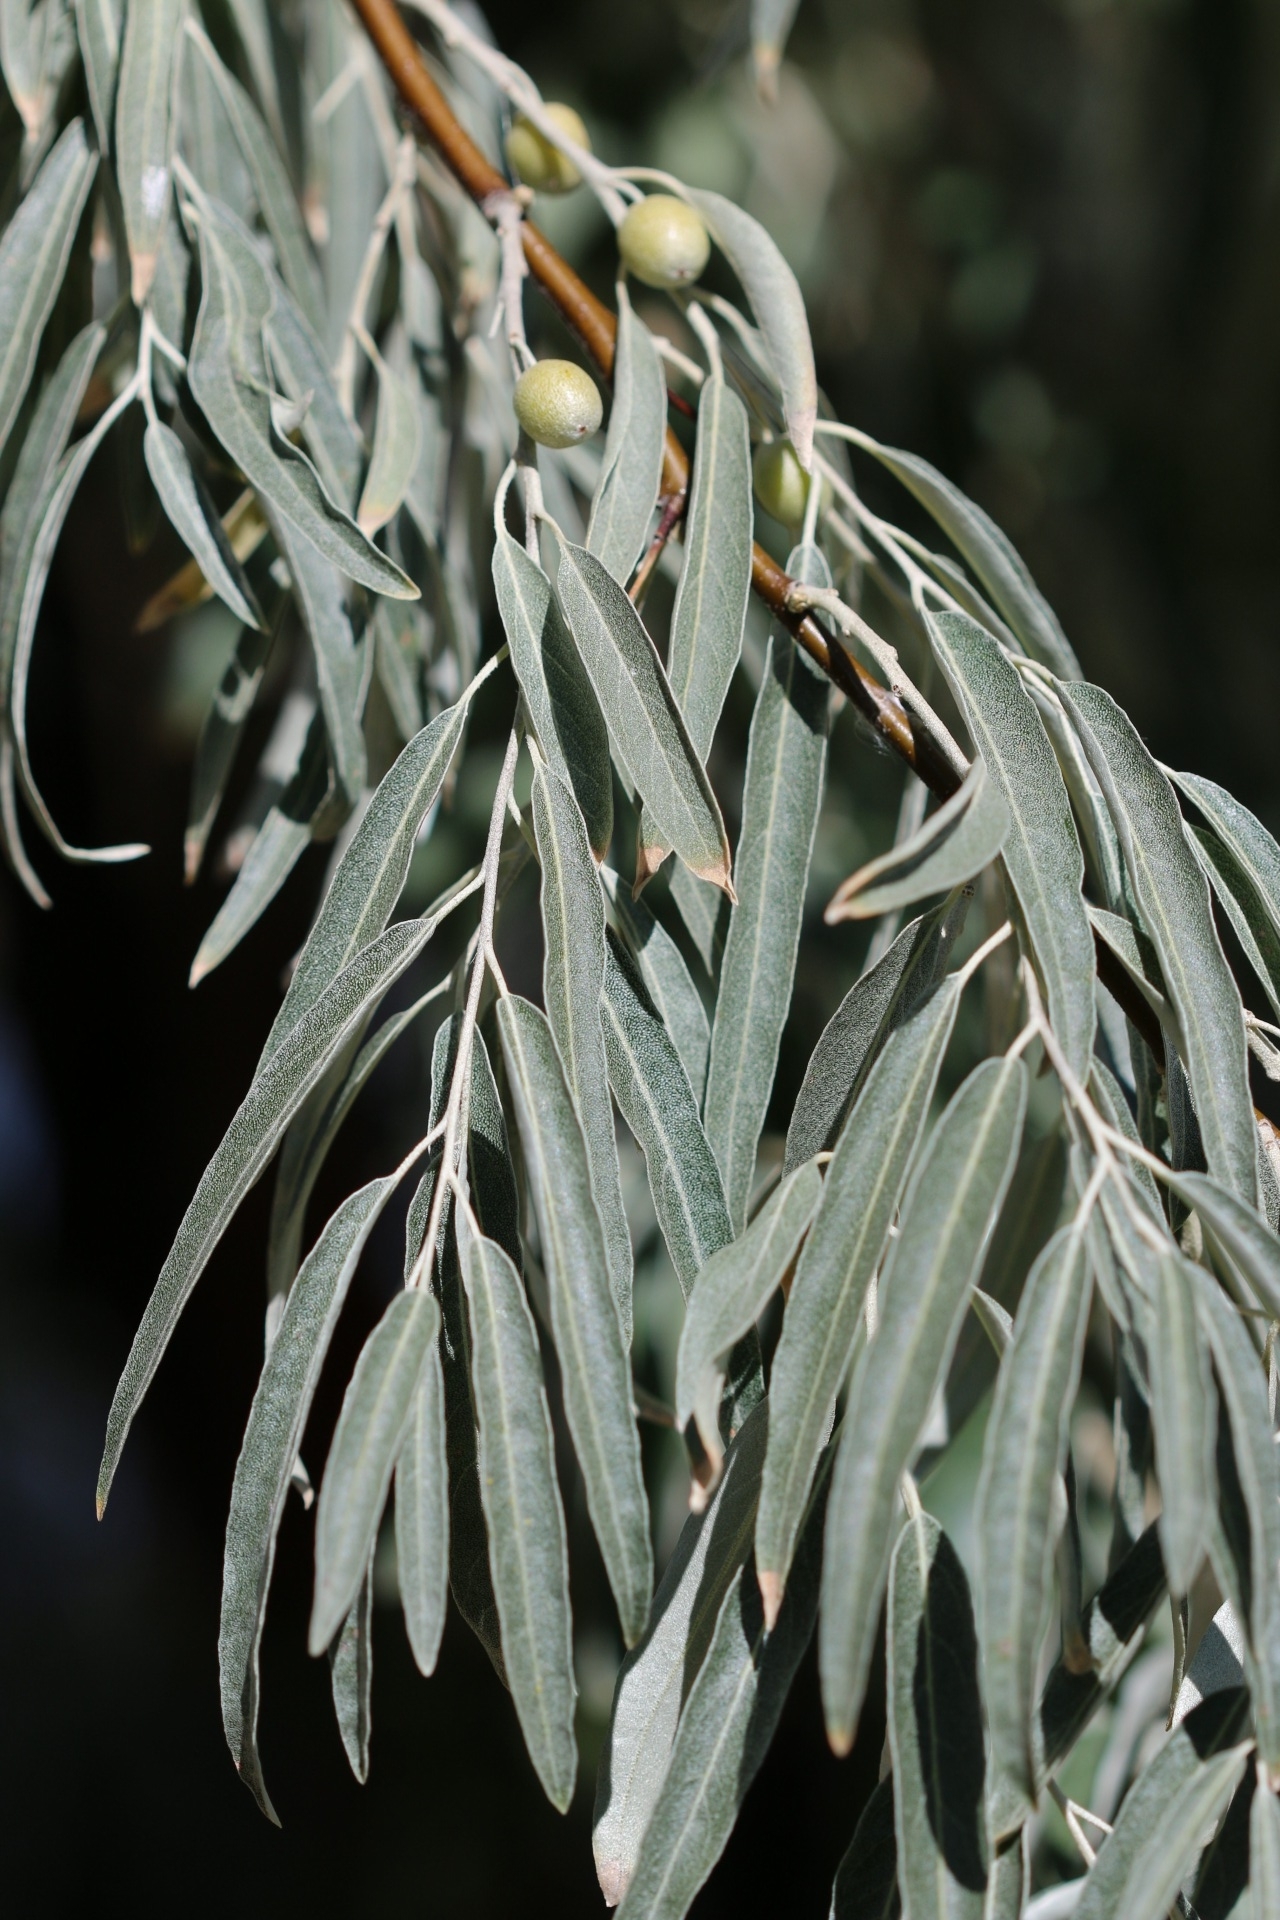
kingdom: Plantae
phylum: Tracheophyta
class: Magnoliopsida
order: Rosales
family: Elaeagnaceae
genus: Elaeagnus
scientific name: Elaeagnus angustifolia
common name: Russian olive
